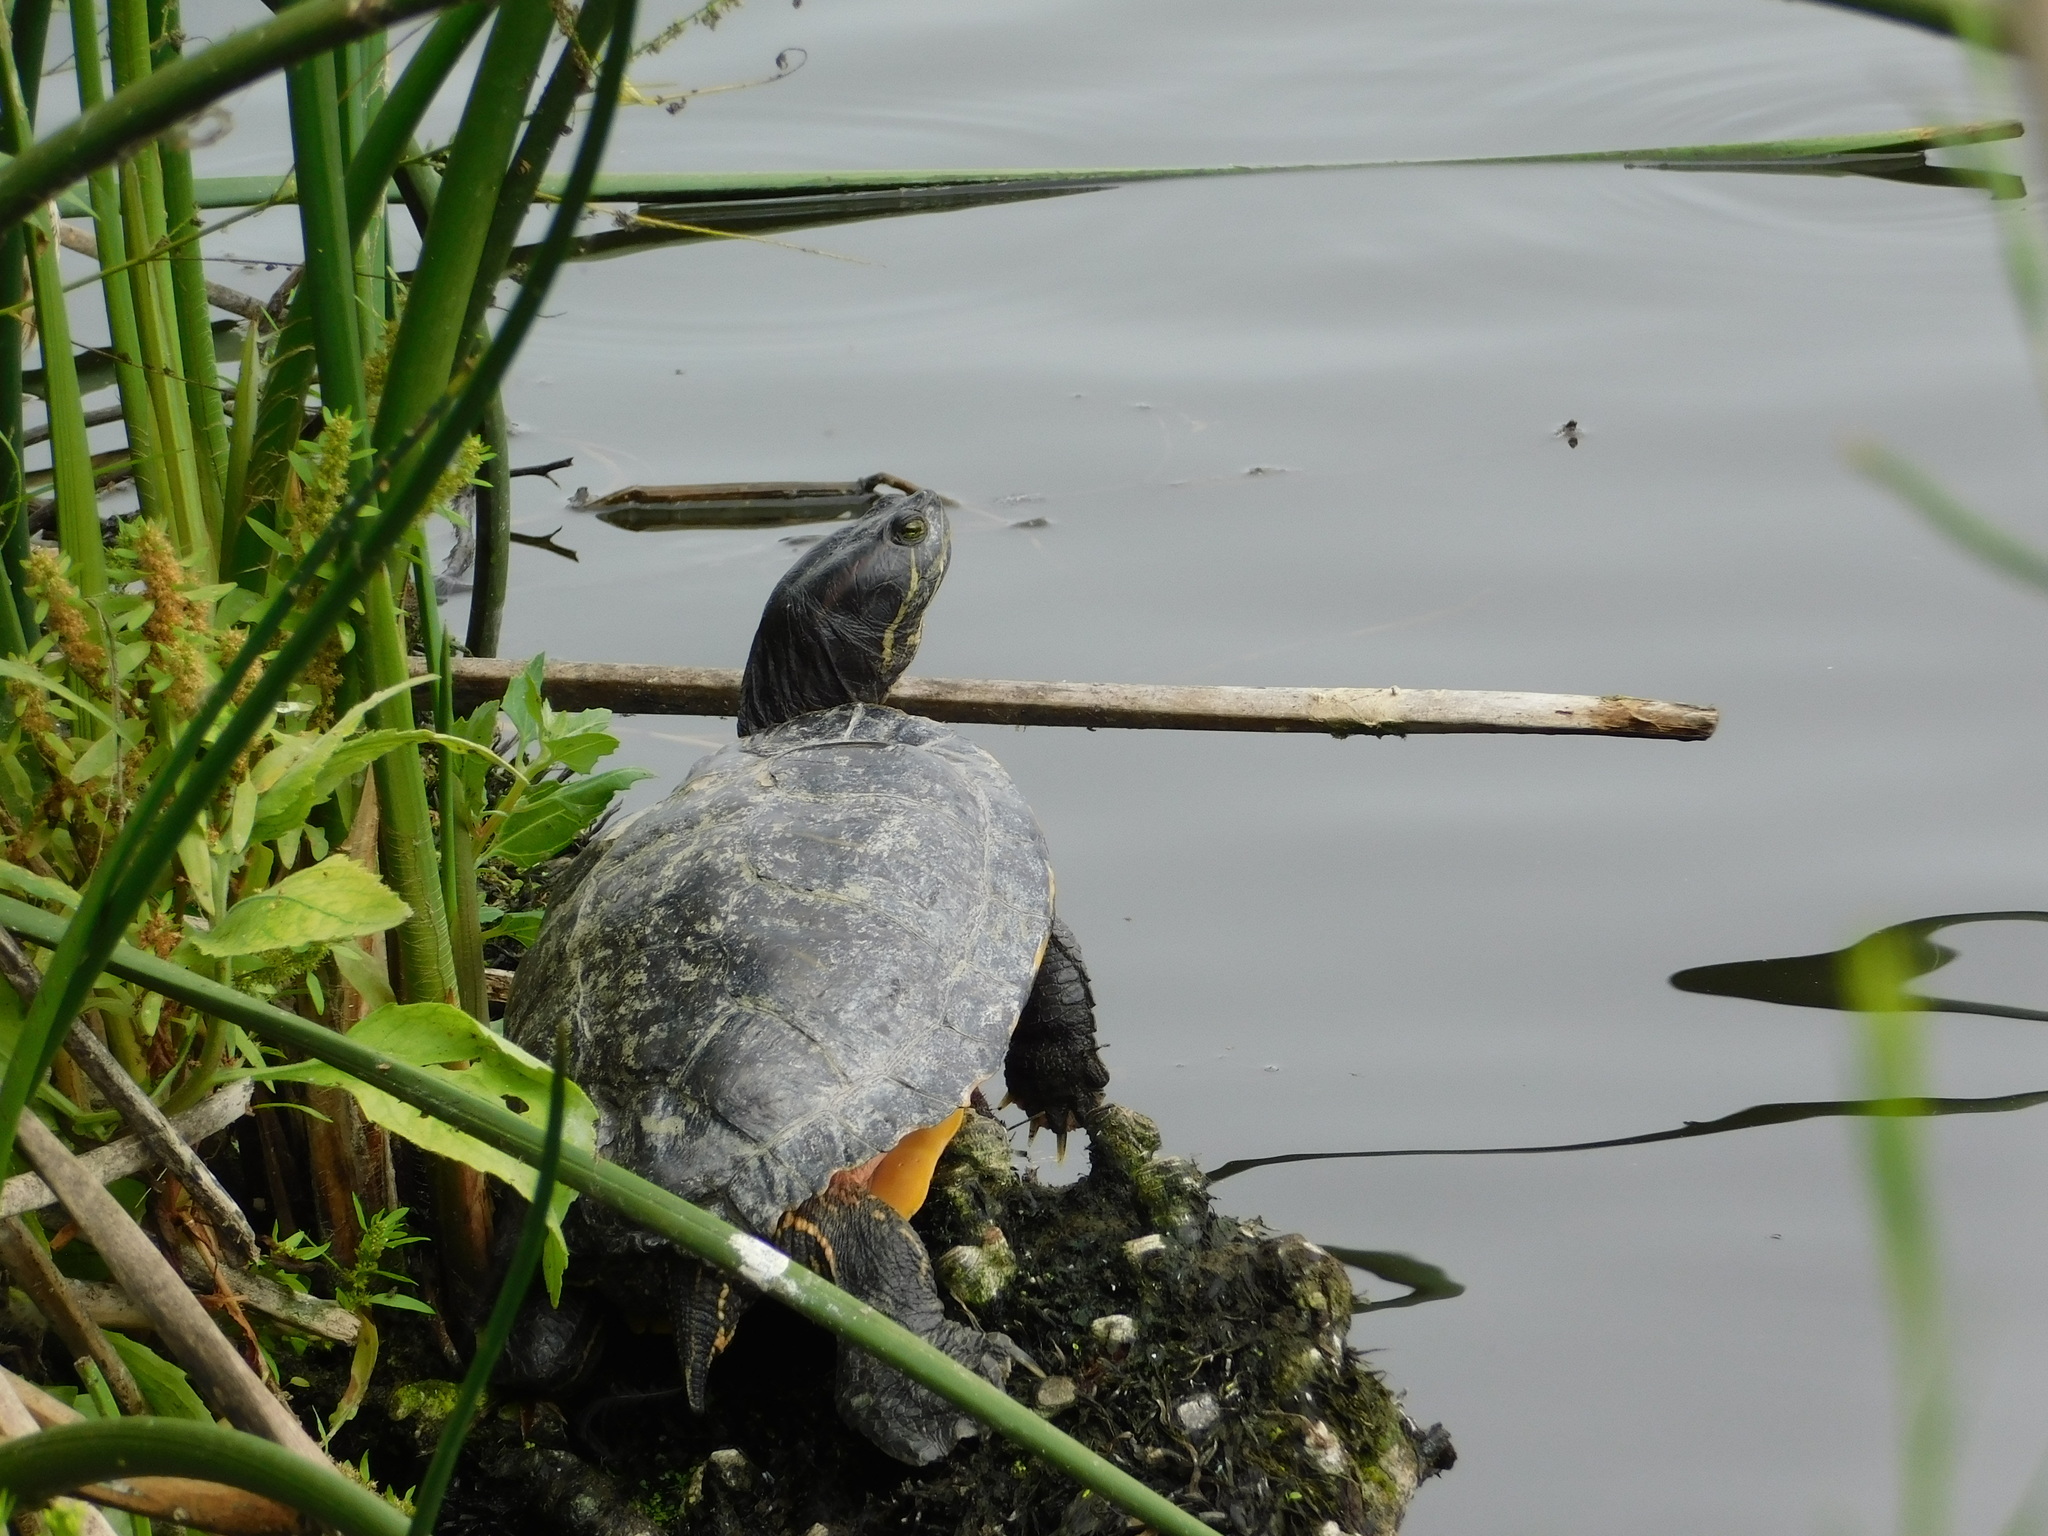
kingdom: Animalia
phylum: Chordata
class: Testudines
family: Emydidae
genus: Trachemys
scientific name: Trachemys scripta
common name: Slider
